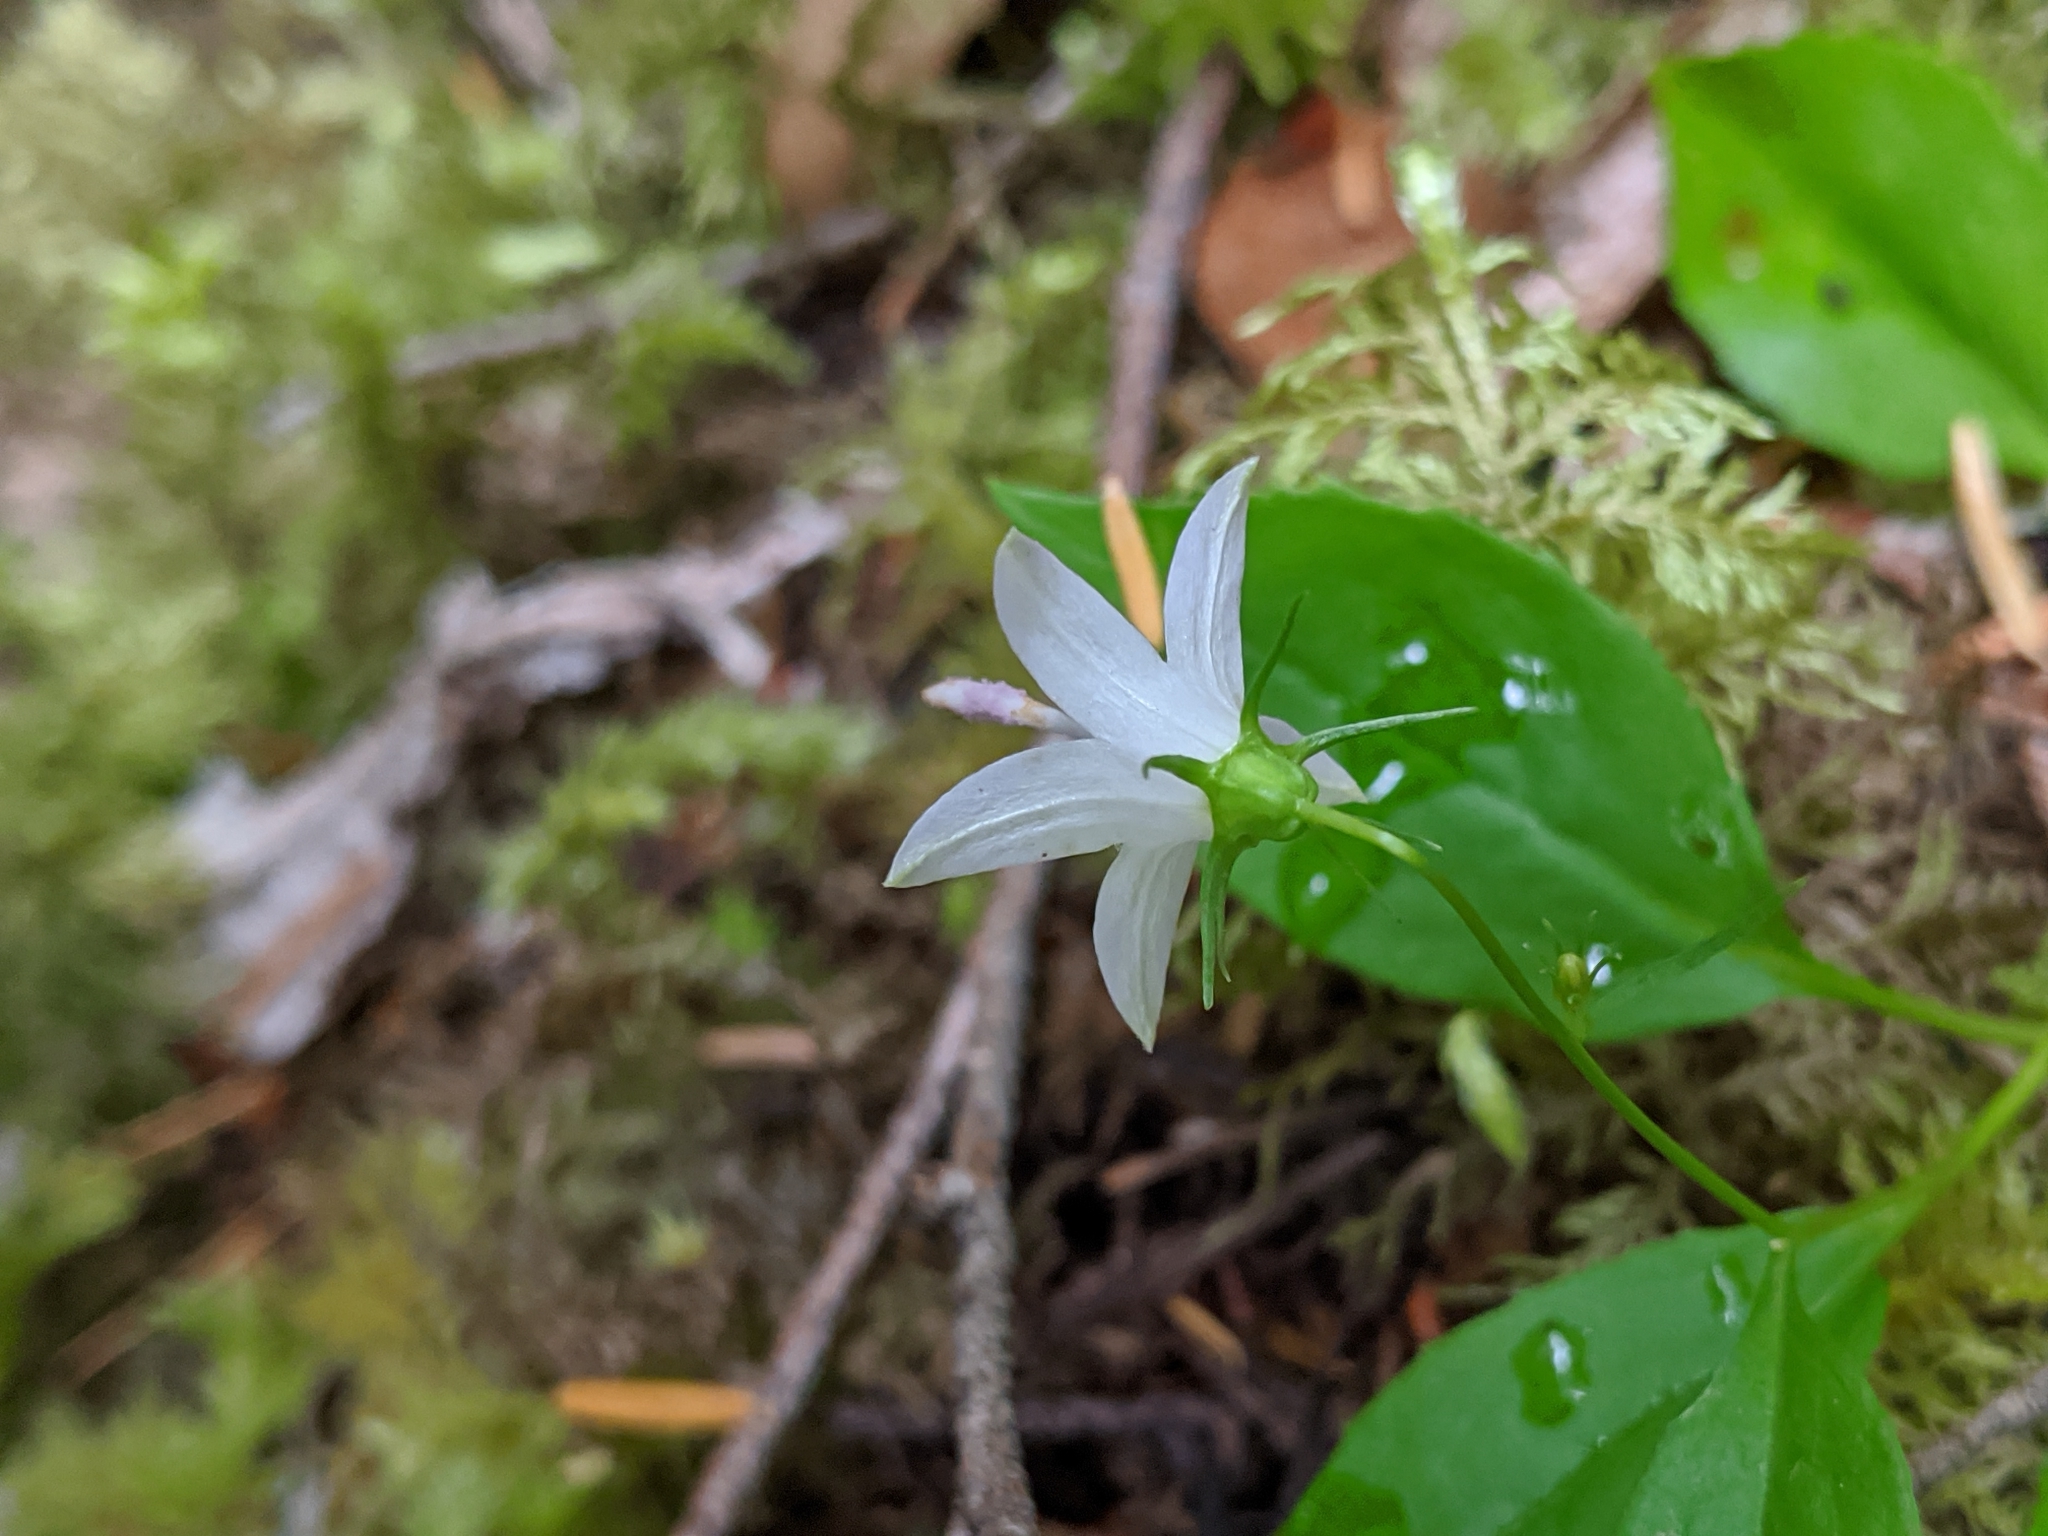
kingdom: Plantae
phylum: Tracheophyta
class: Magnoliopsida
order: Asterales
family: Campanulaceae
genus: Campanula
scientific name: Campanula scouleri
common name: Scouler's harebell
